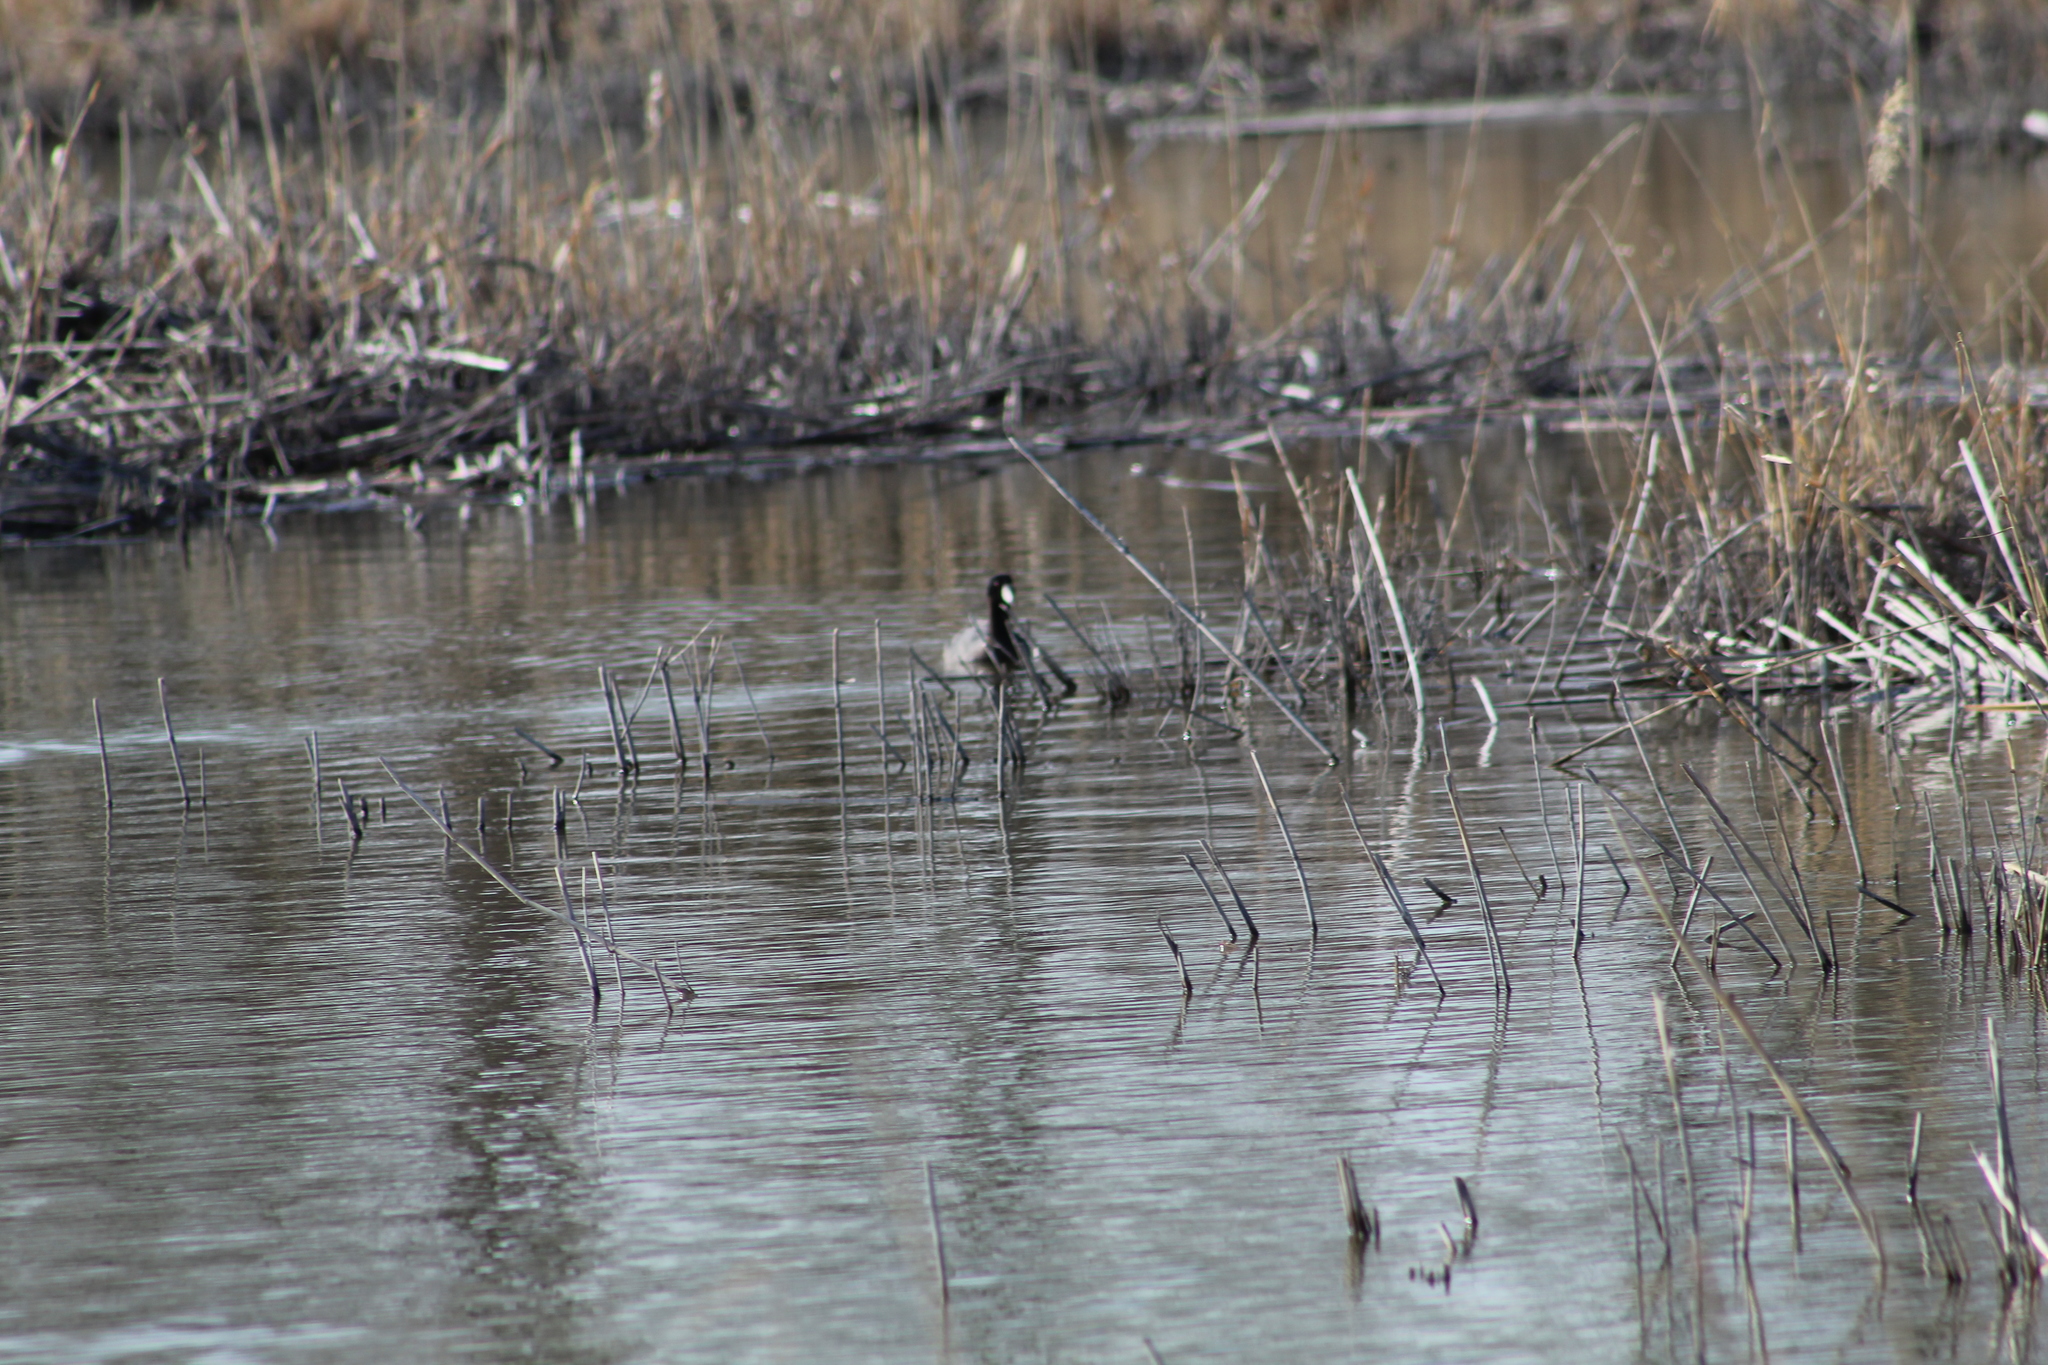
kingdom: Animalia
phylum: Chordata
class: Aves
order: Gruiformes
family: Rallidae
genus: Fulica
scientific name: Fulica americana
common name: American coot
